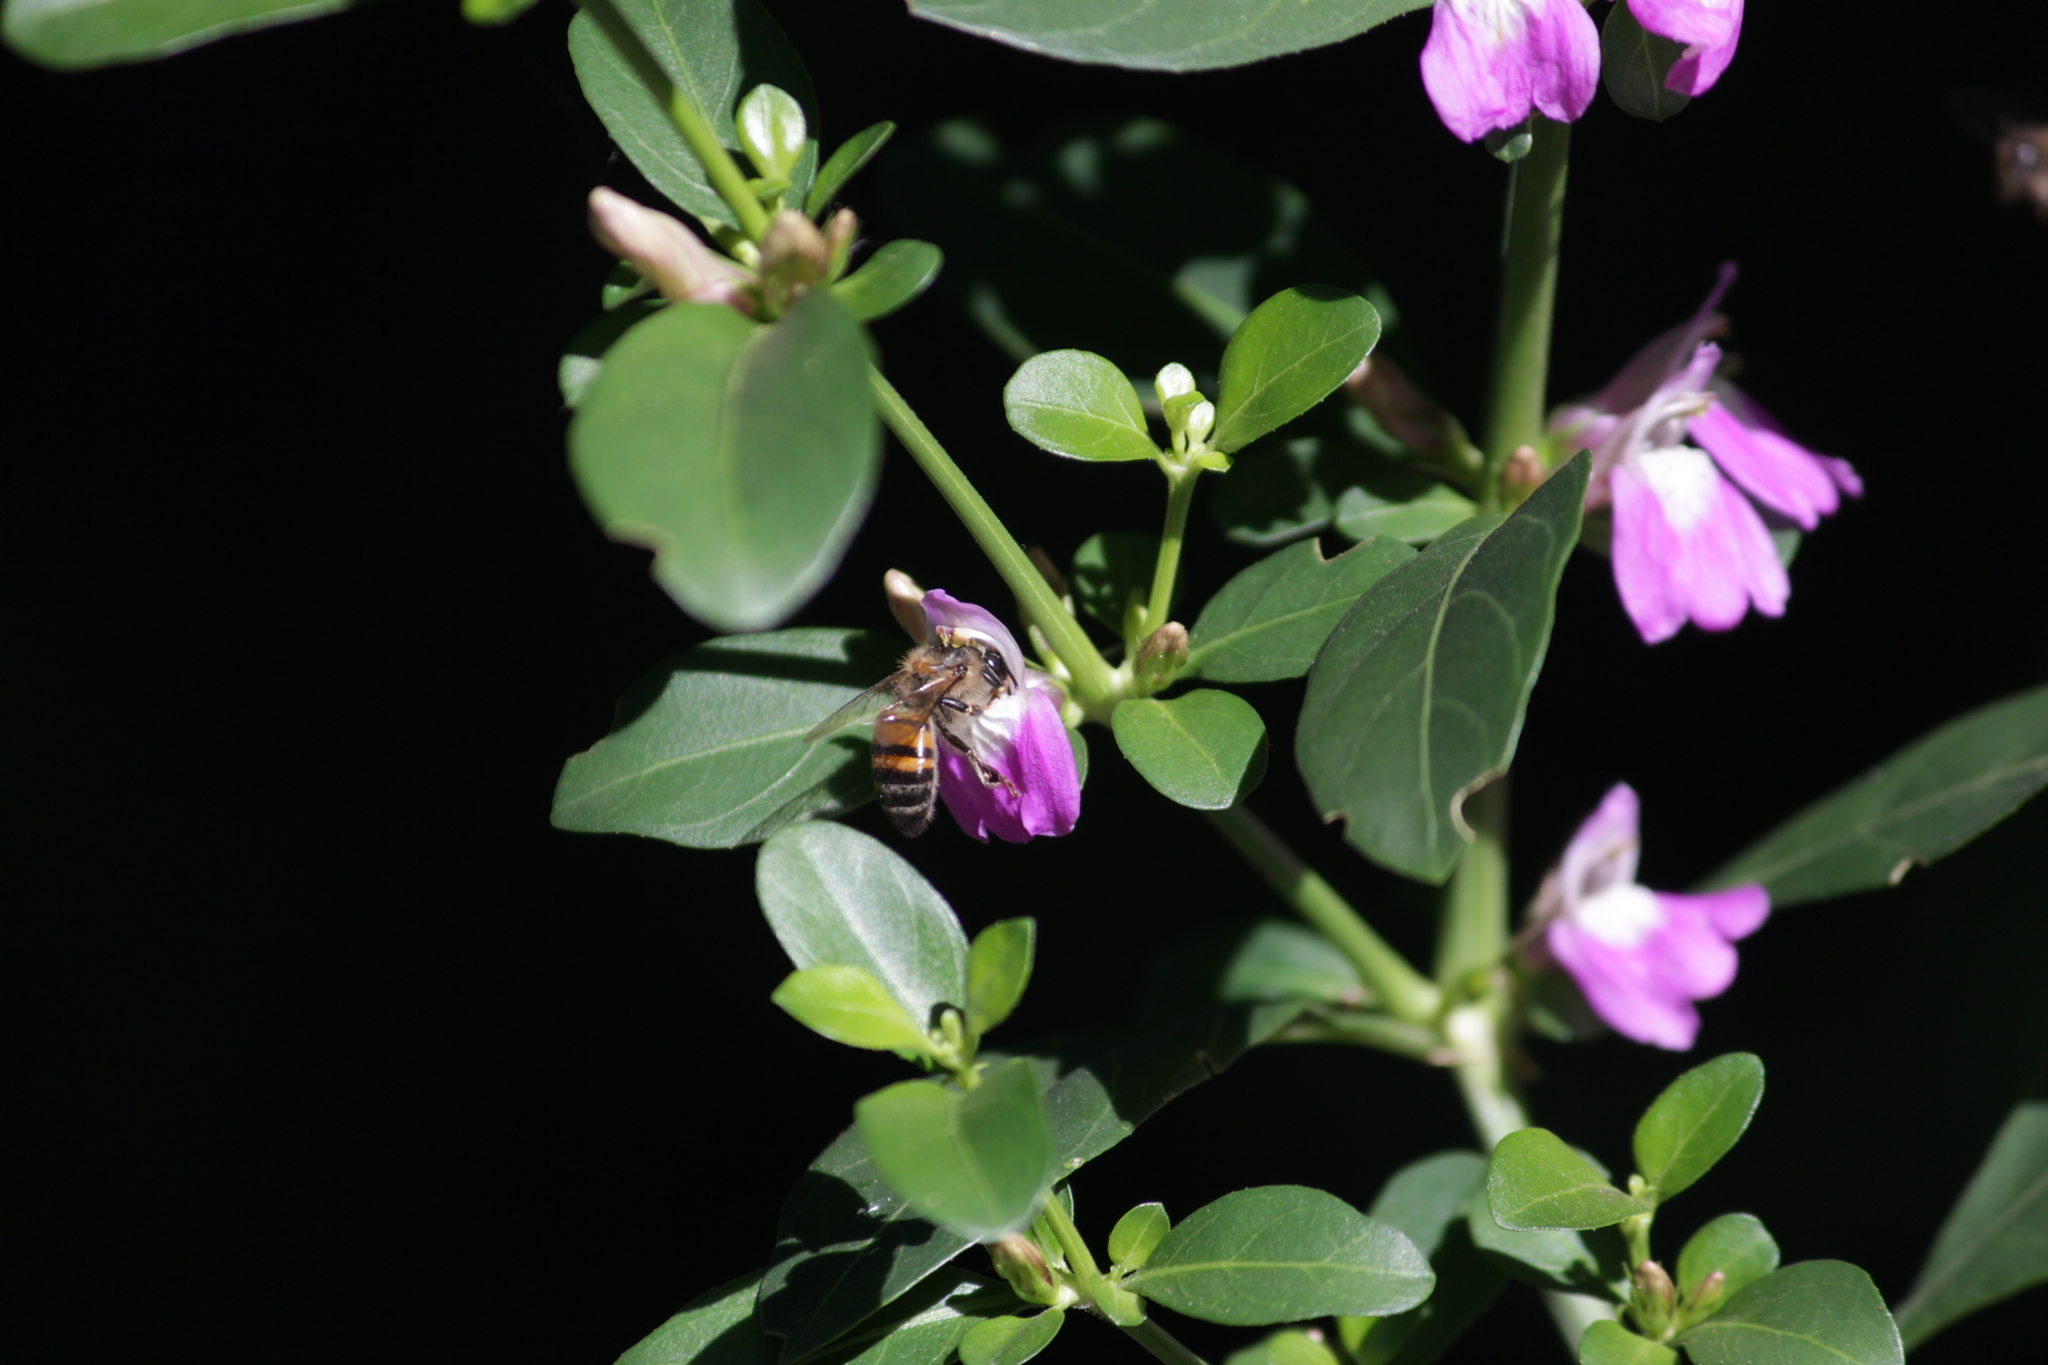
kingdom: Animalia
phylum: Arthropoda
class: Insecta
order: Hymenoptera
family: Apidae
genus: Apis
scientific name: Apis mellifera
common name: Honey bee
